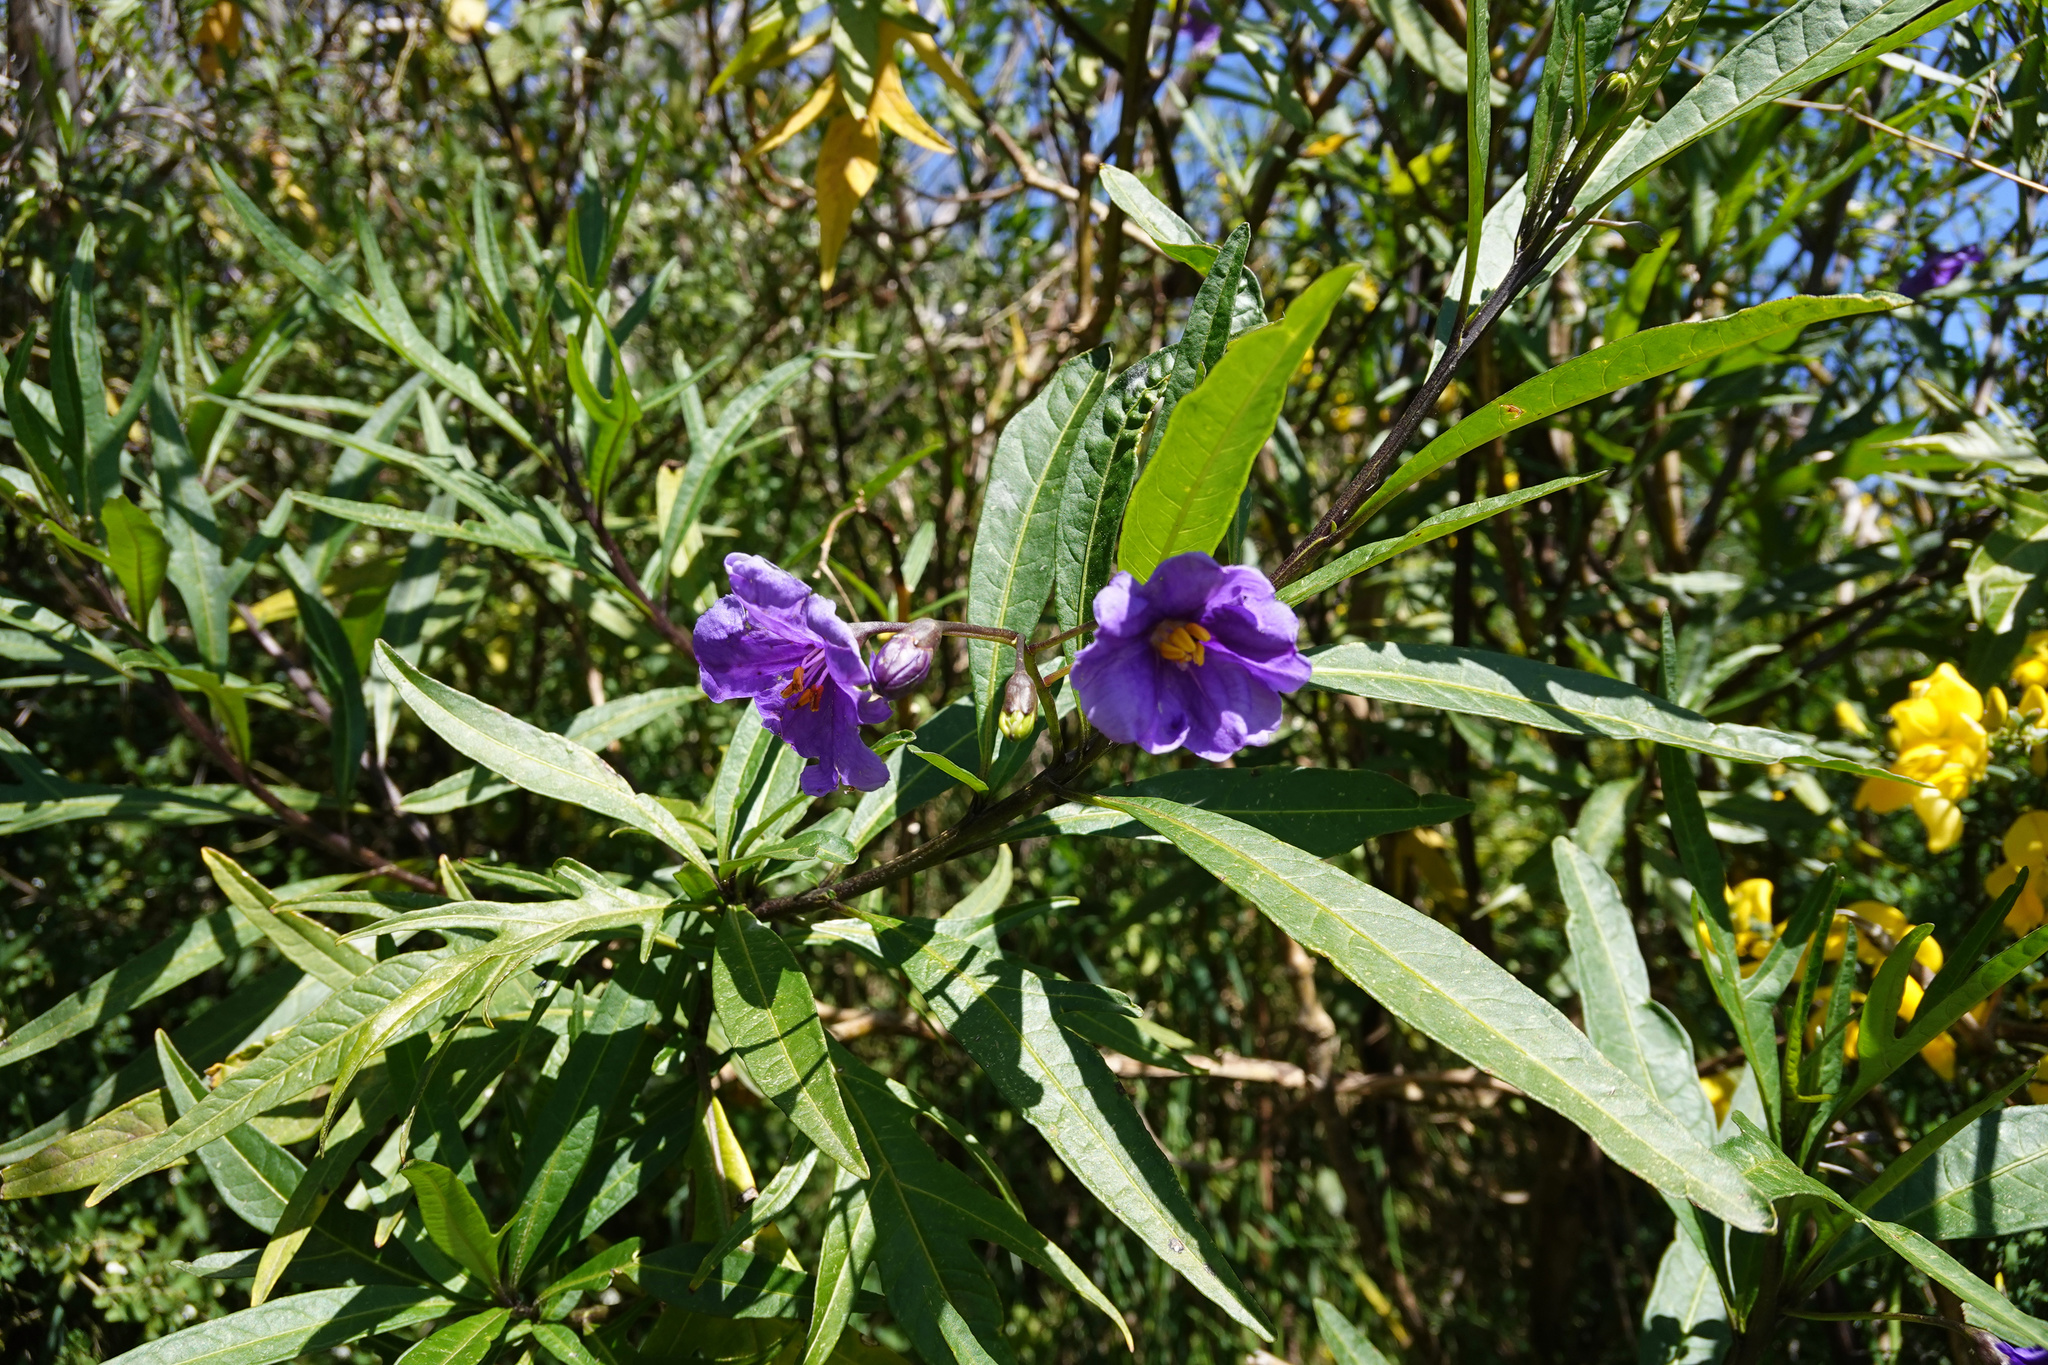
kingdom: Plantae
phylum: Tracheophyta
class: Magnoliopsida
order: Solanales
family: Solanaceae
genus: Solanum
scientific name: Solanum laciniatum
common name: Kangaroo-apple
